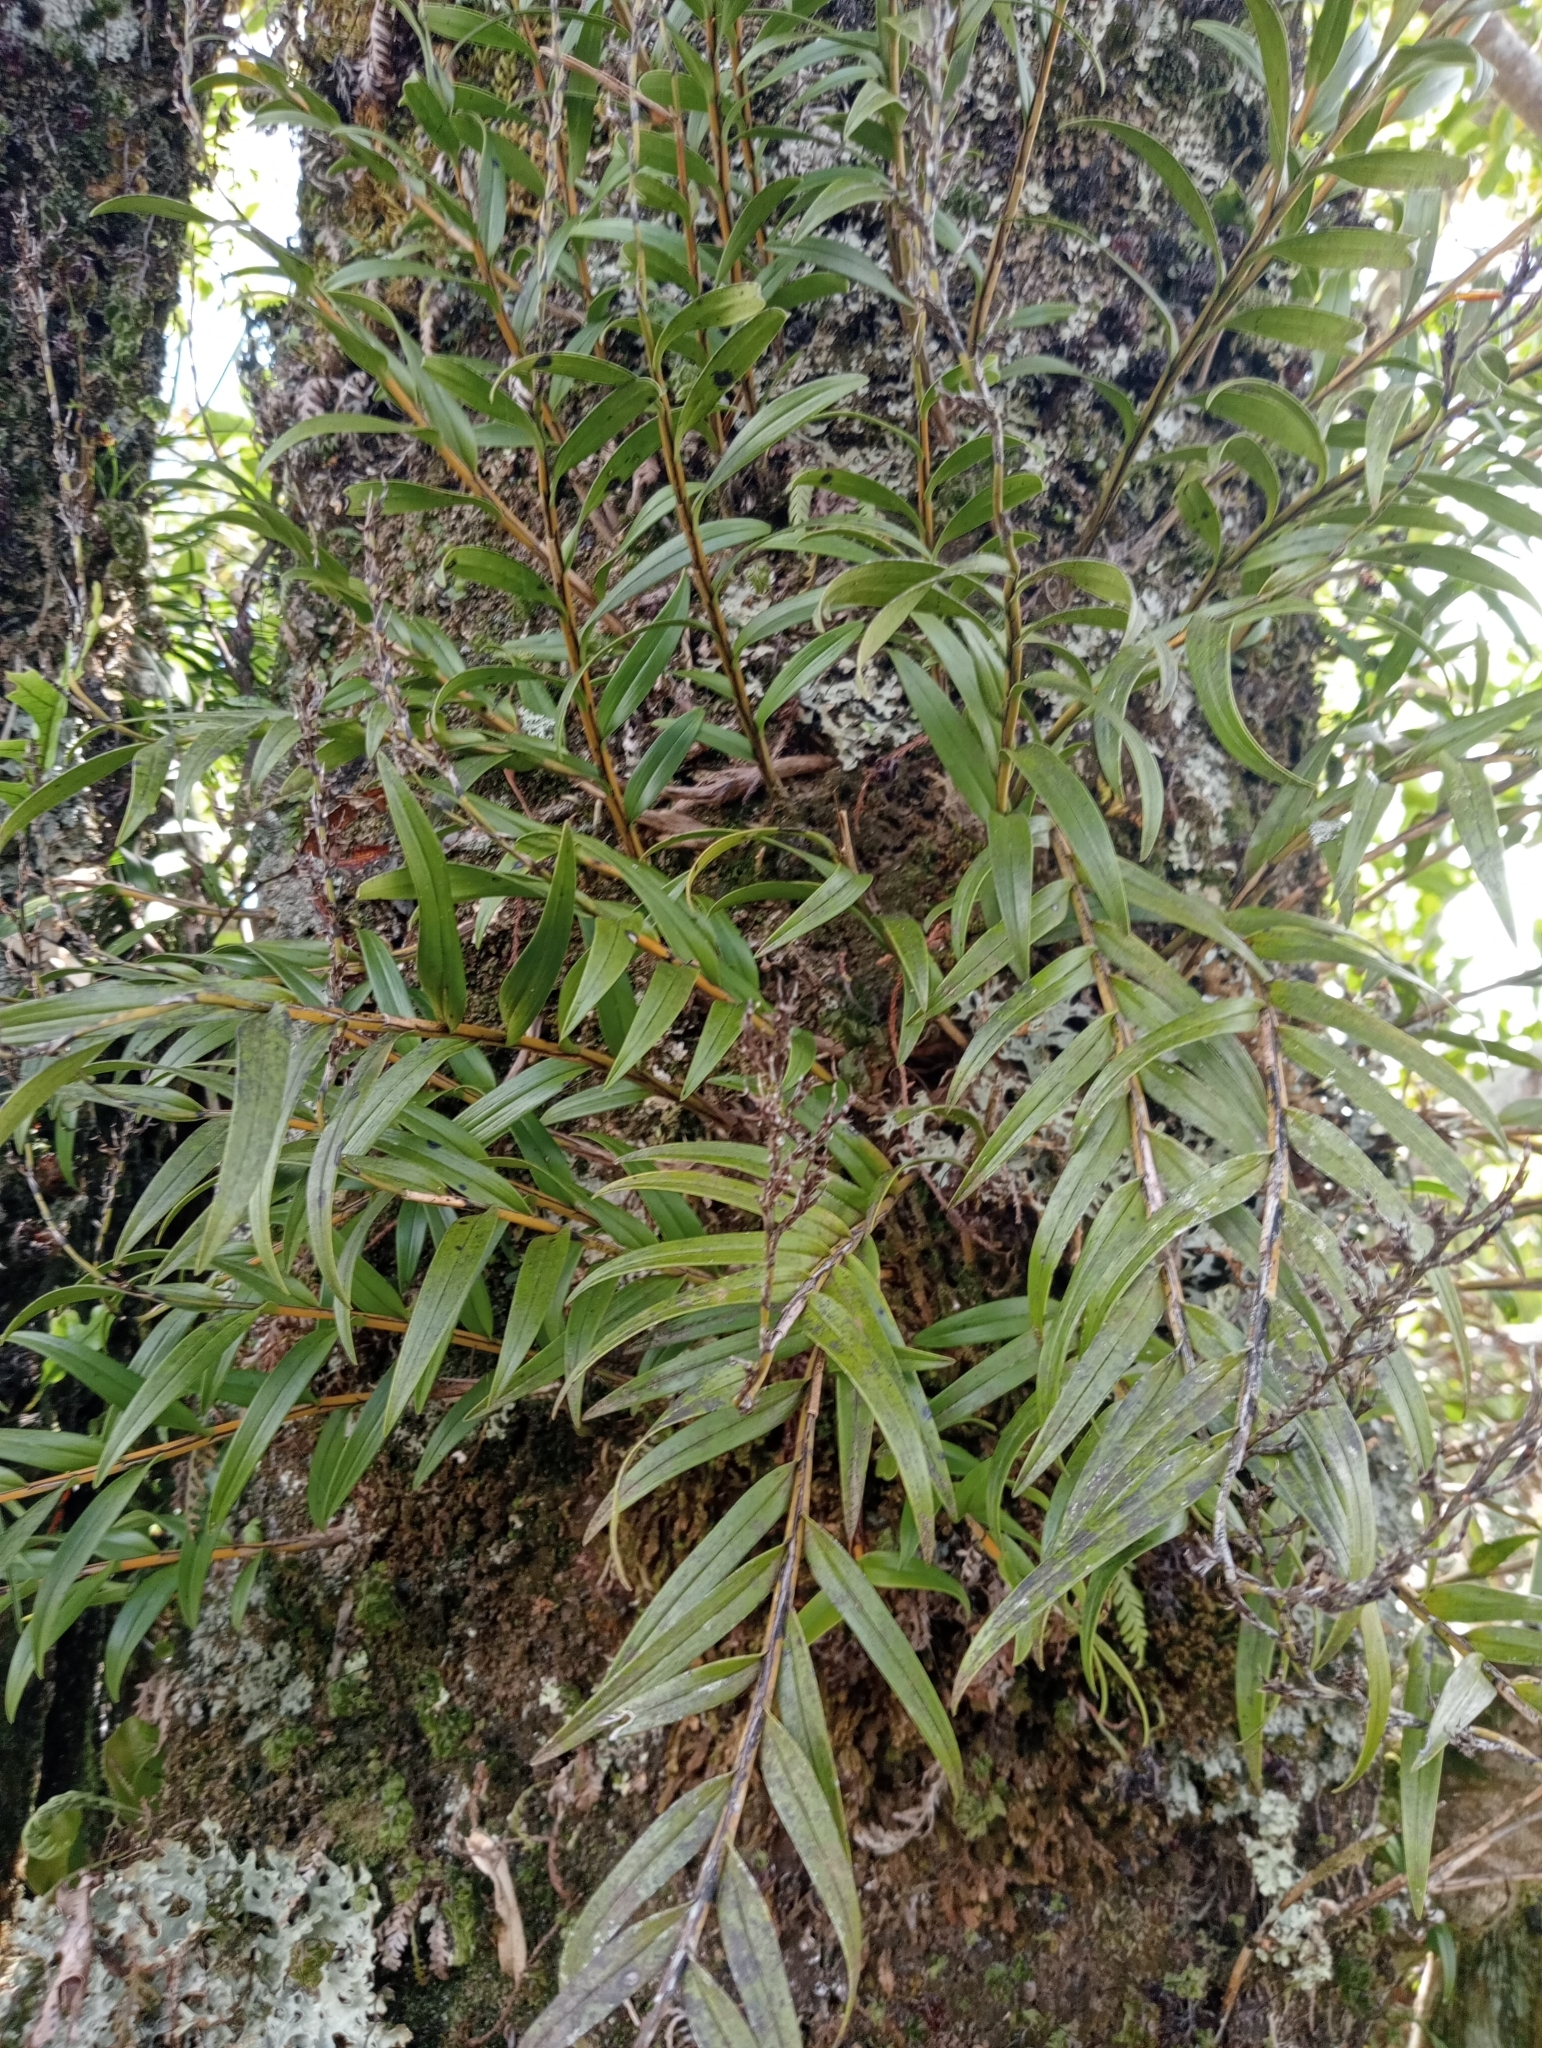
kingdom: Plantae
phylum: Tracheophyta
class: Liliopsida
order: Asparagales
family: Orchidaceae
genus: Earina
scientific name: Earina autumnalis
